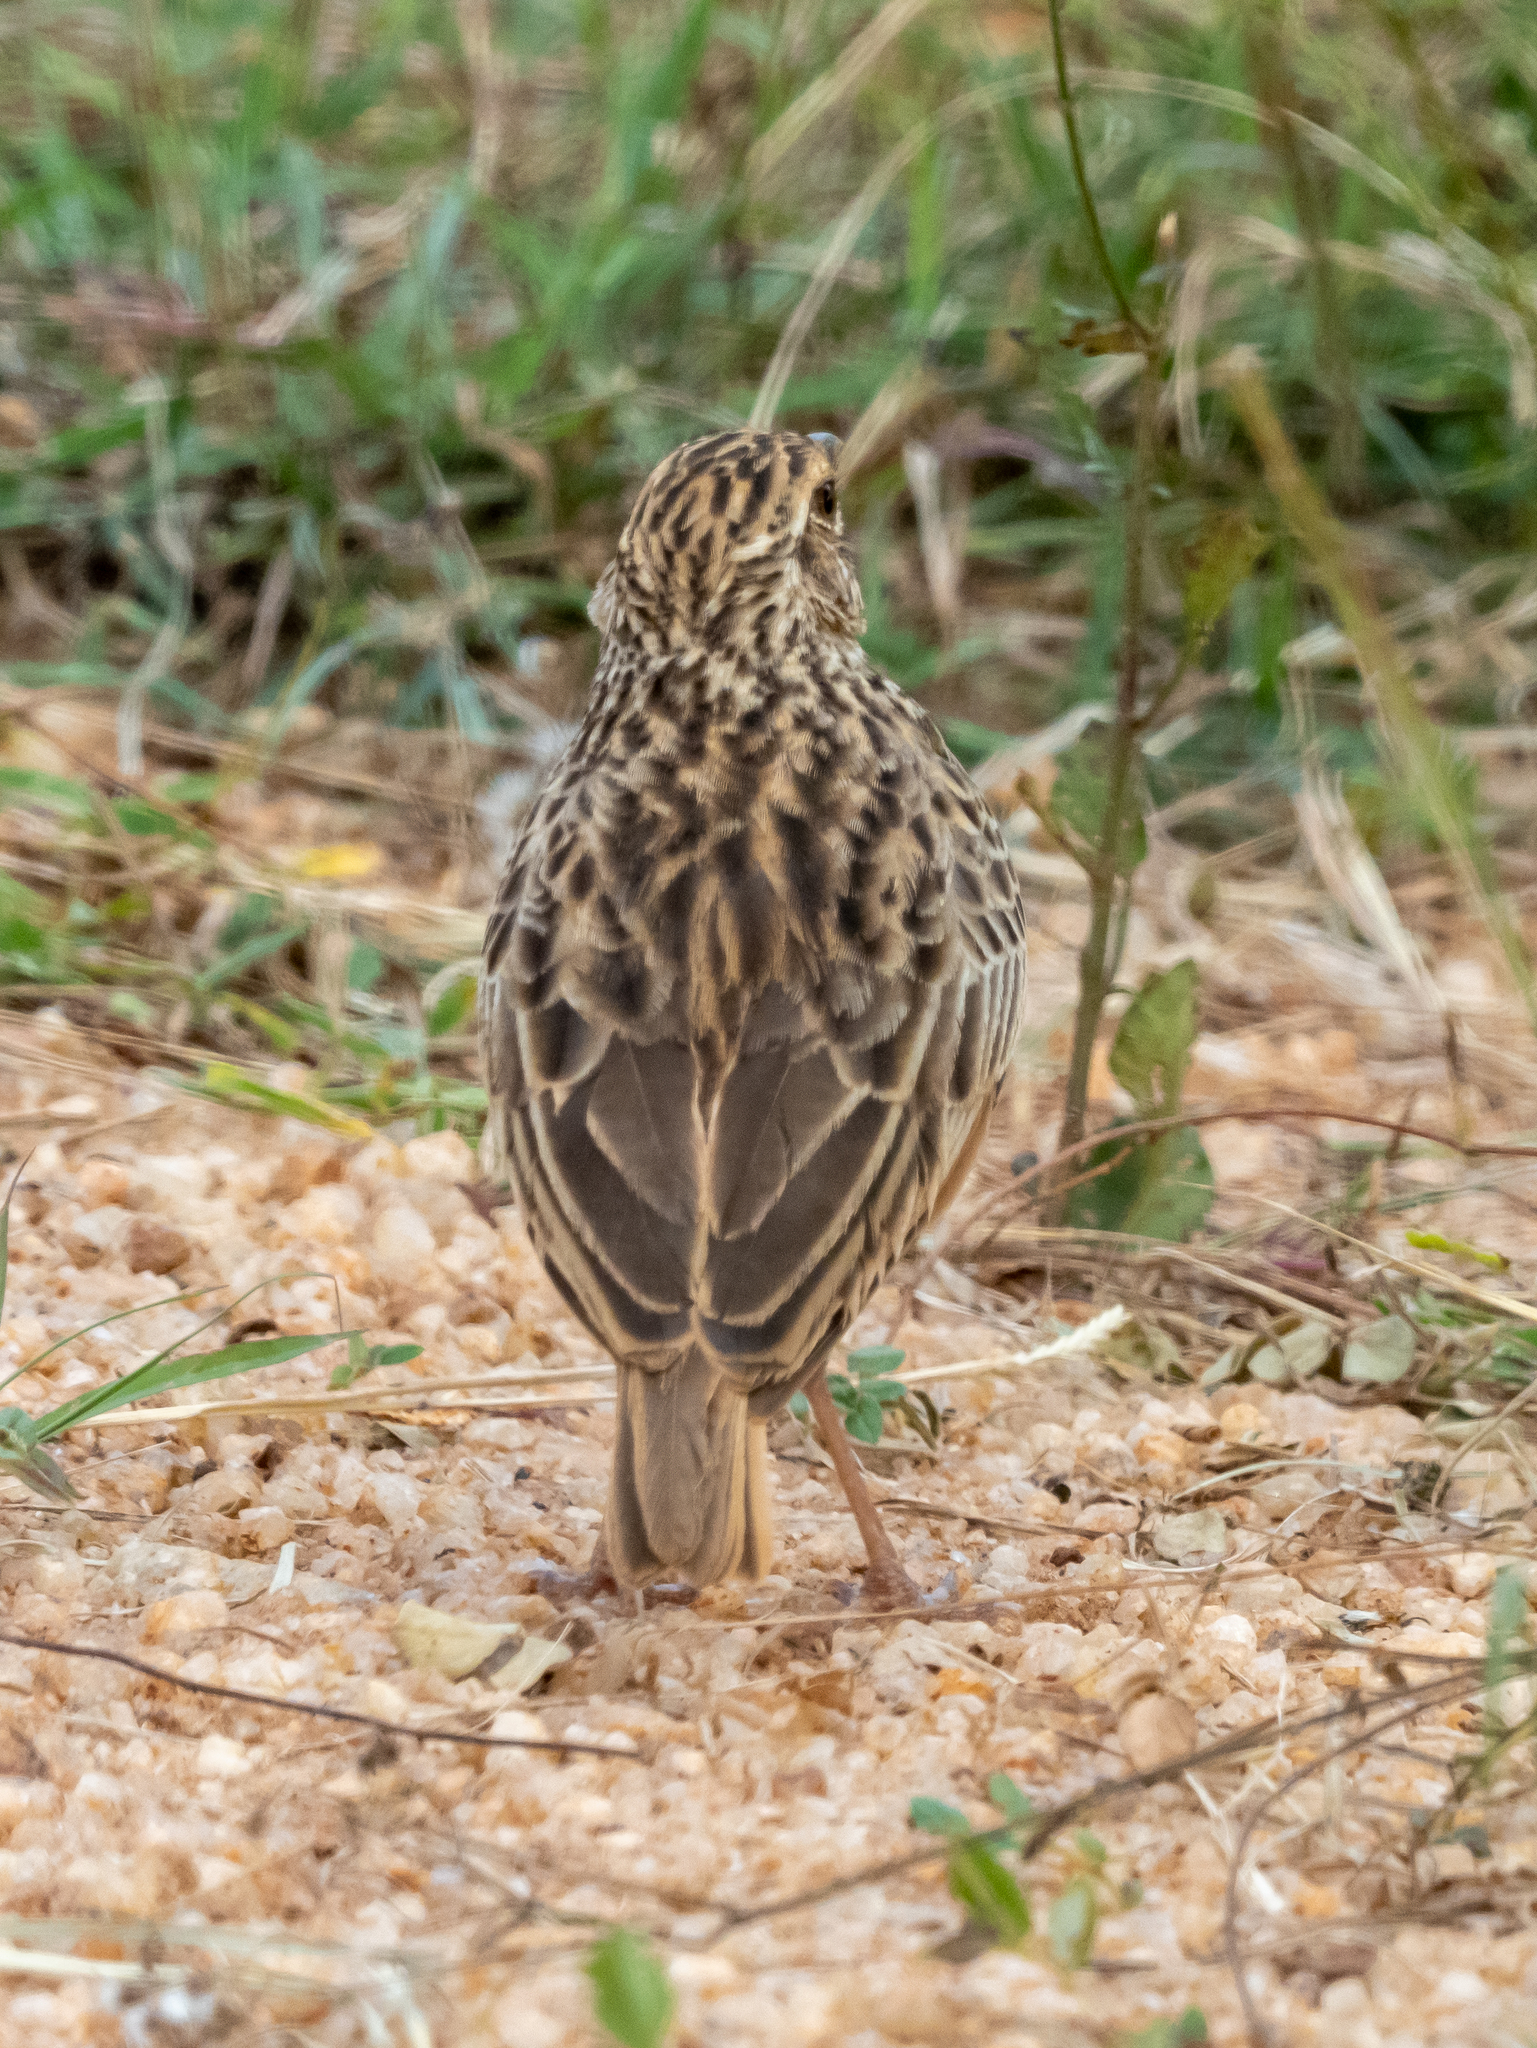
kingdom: Animalia
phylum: Chordata
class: Aves
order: Passeriformes
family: Alaudidae
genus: Mirafra
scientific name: Mirafra affinis
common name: Jerdon's bushlark
